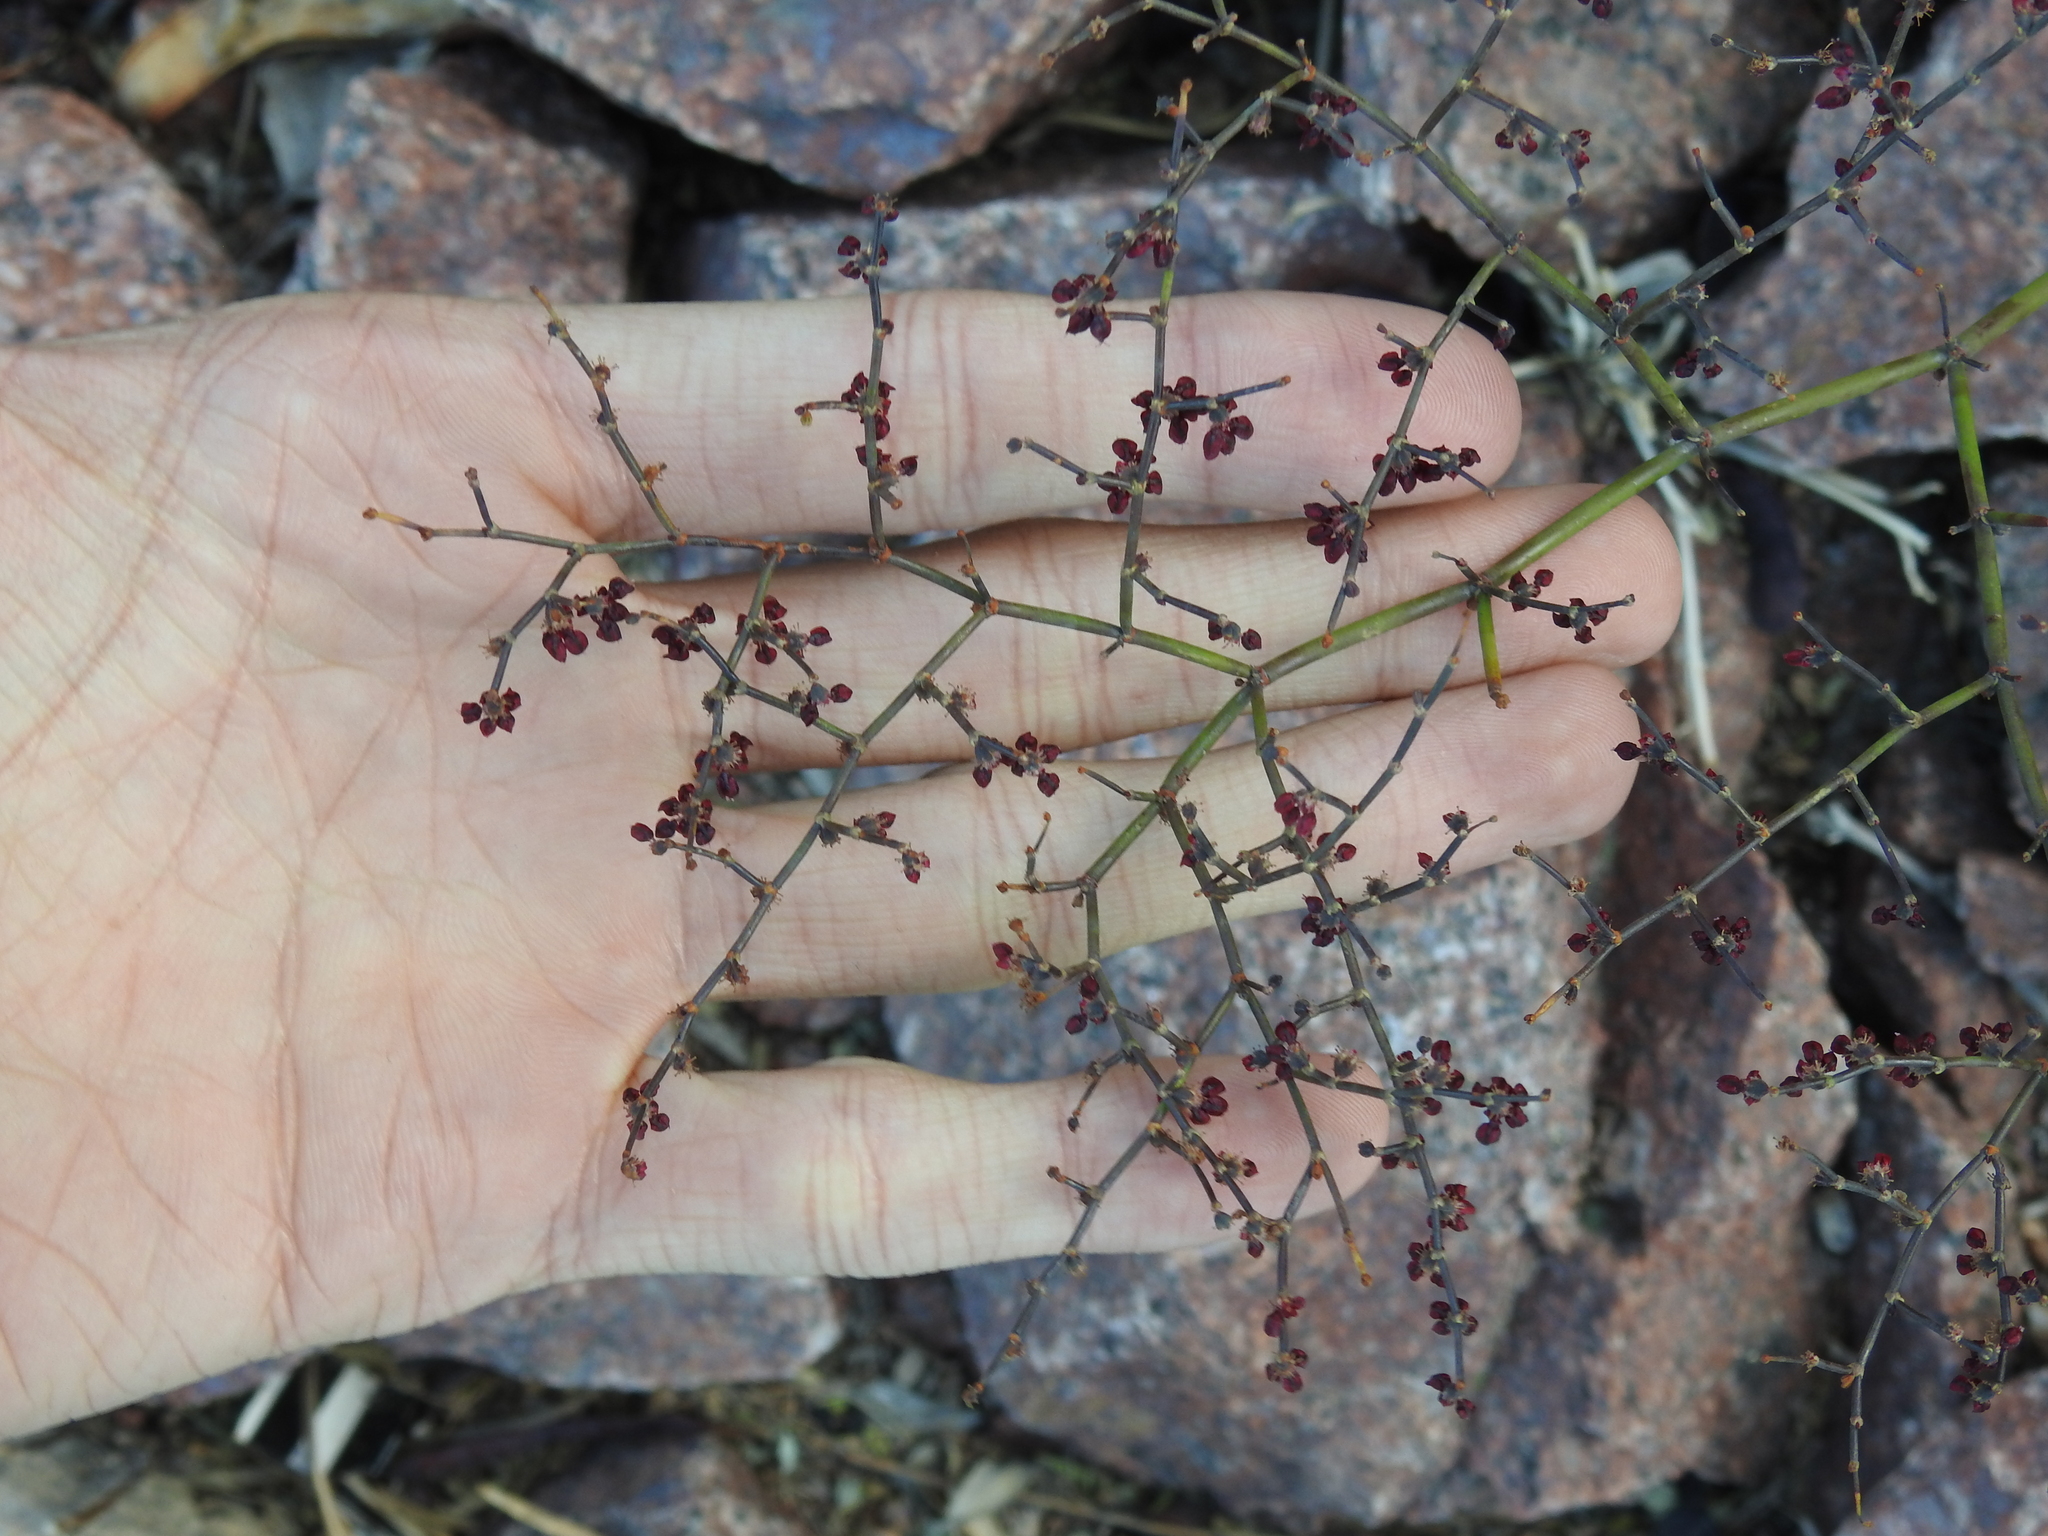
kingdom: Plantae
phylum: Tracheophyta
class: Magnoliopsida
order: Caryophyllales
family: Polygonaceae
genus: Eriogonum
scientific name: Eriogonum deflexum
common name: Skeleton-weed
